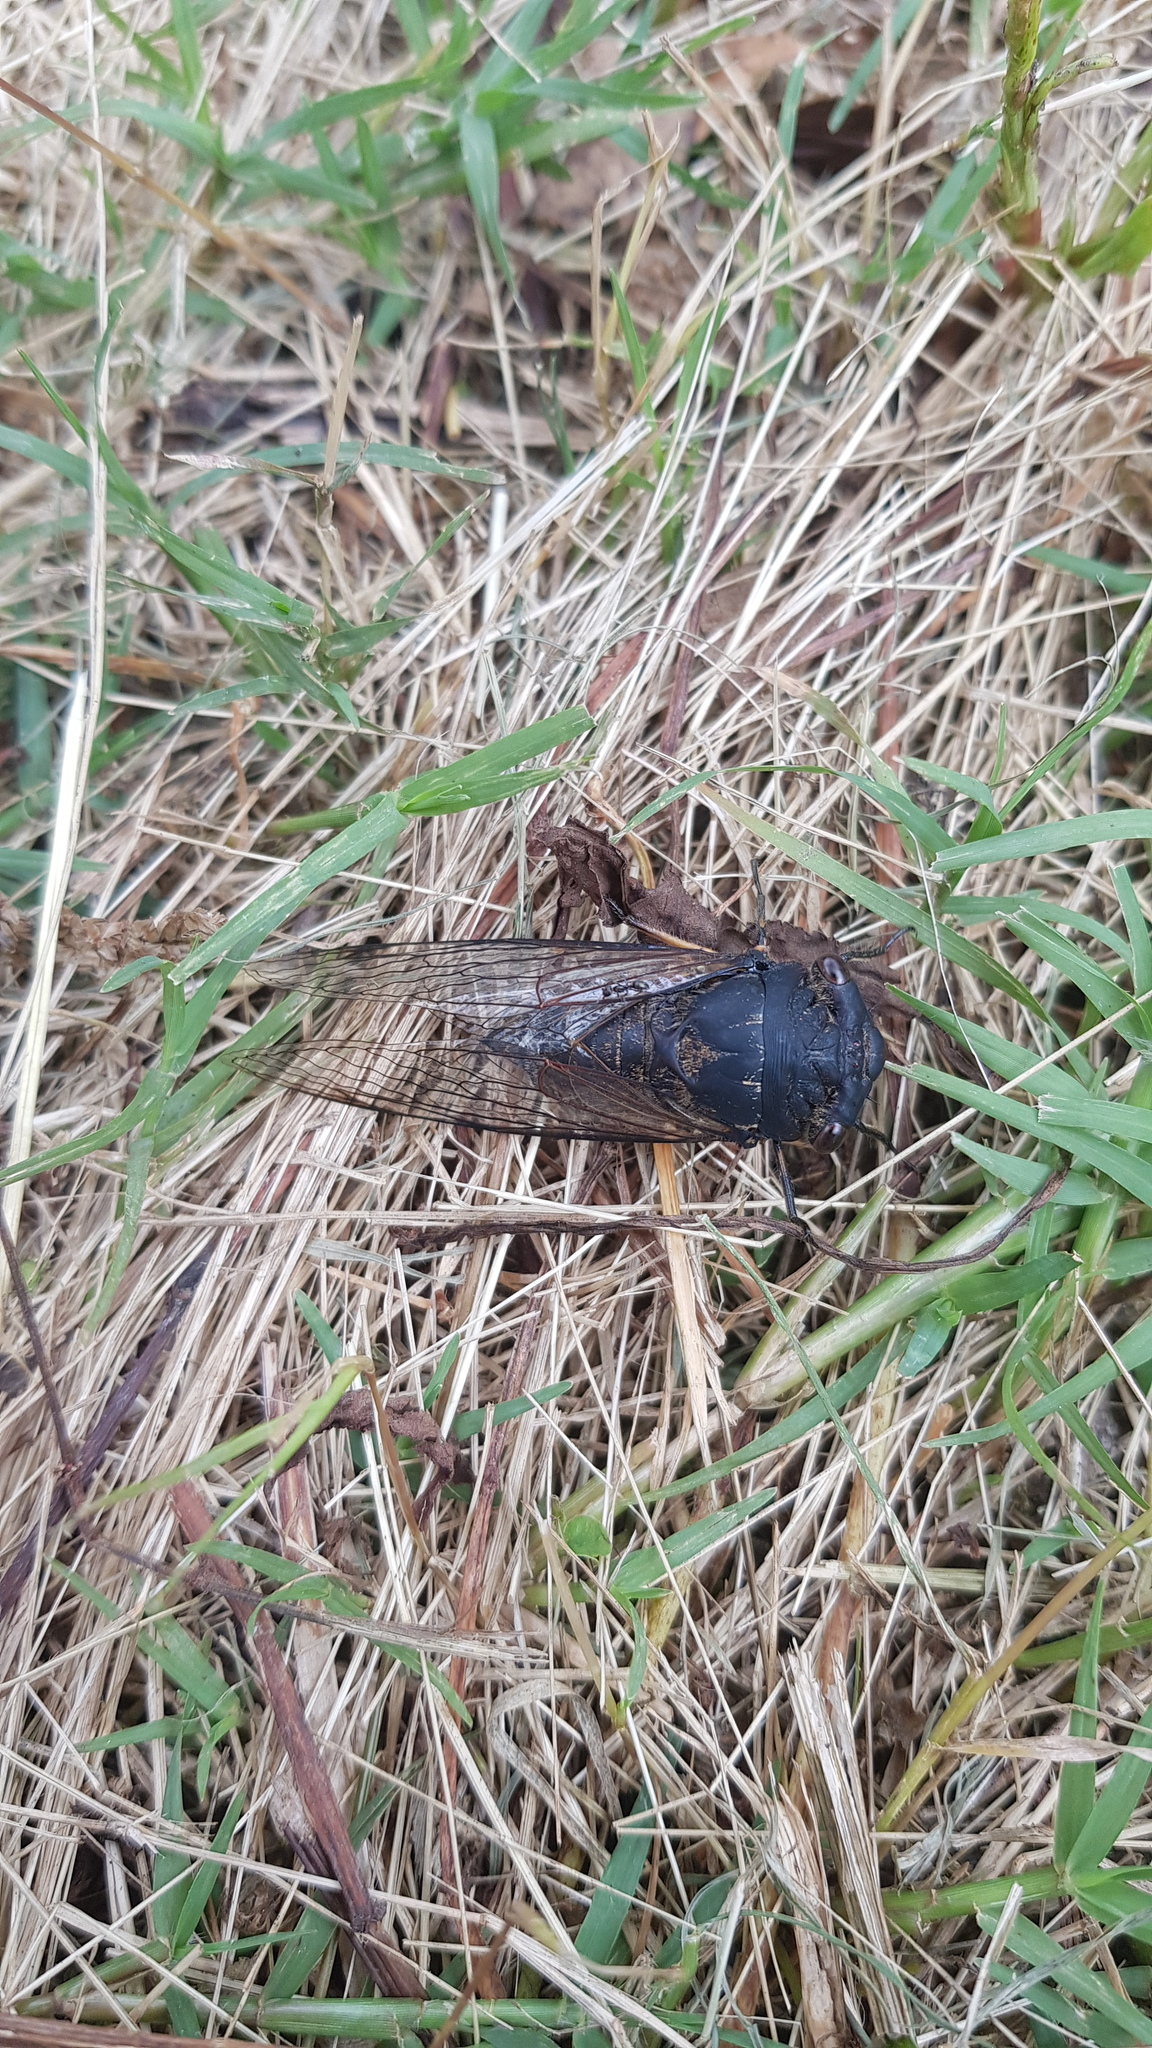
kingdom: Animalia
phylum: Arthropoda
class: Insecta
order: Hemiptera
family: Cicadidae
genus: Psaltoda
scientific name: Psaltoda plaga
